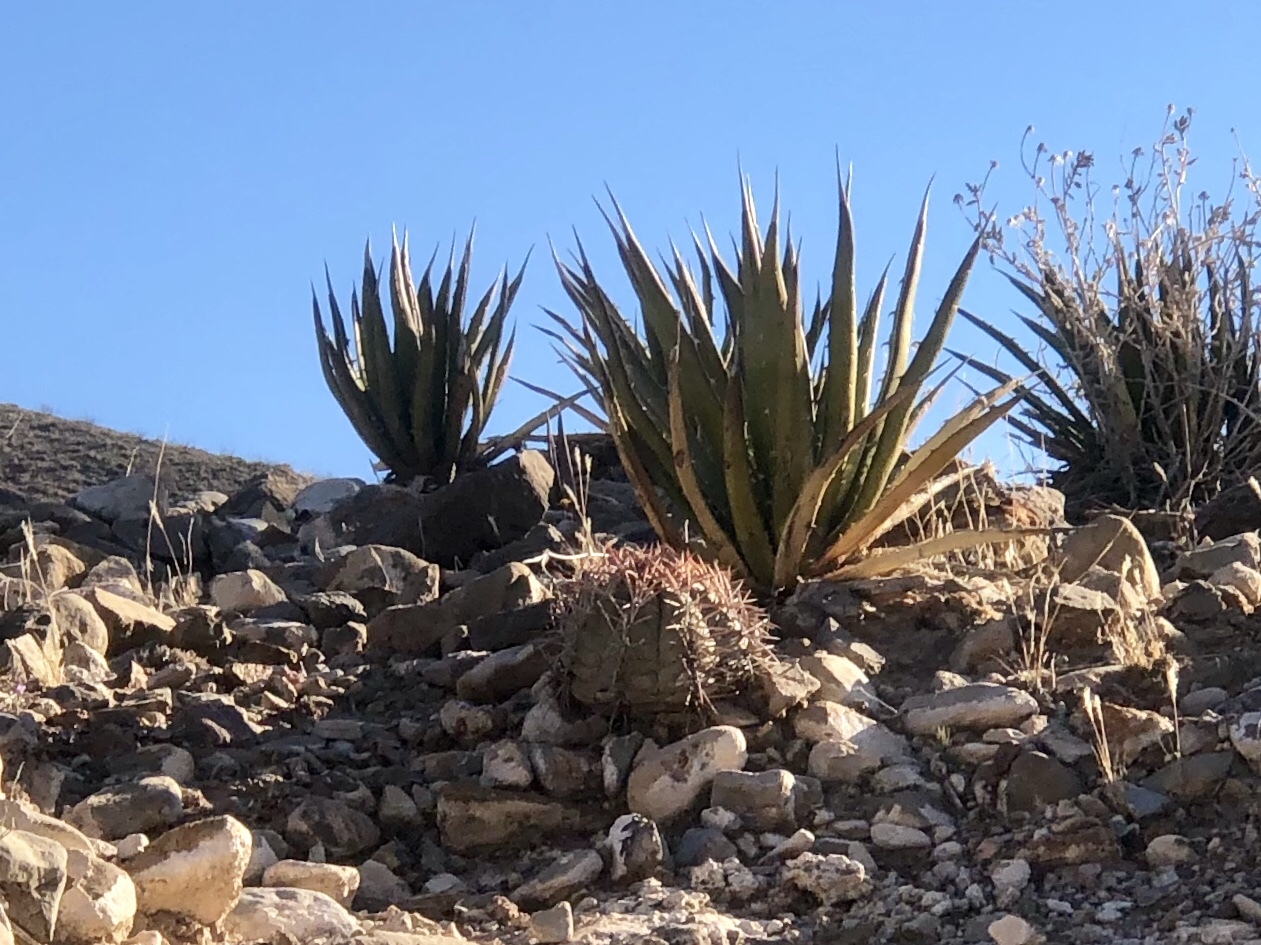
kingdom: Plantae
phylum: Tracheophyta
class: Magnoliopsida
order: Caryophyllales
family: Cactaceae
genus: Echinocactus
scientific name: Echinocactus horizonthalonius
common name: Devilshead
